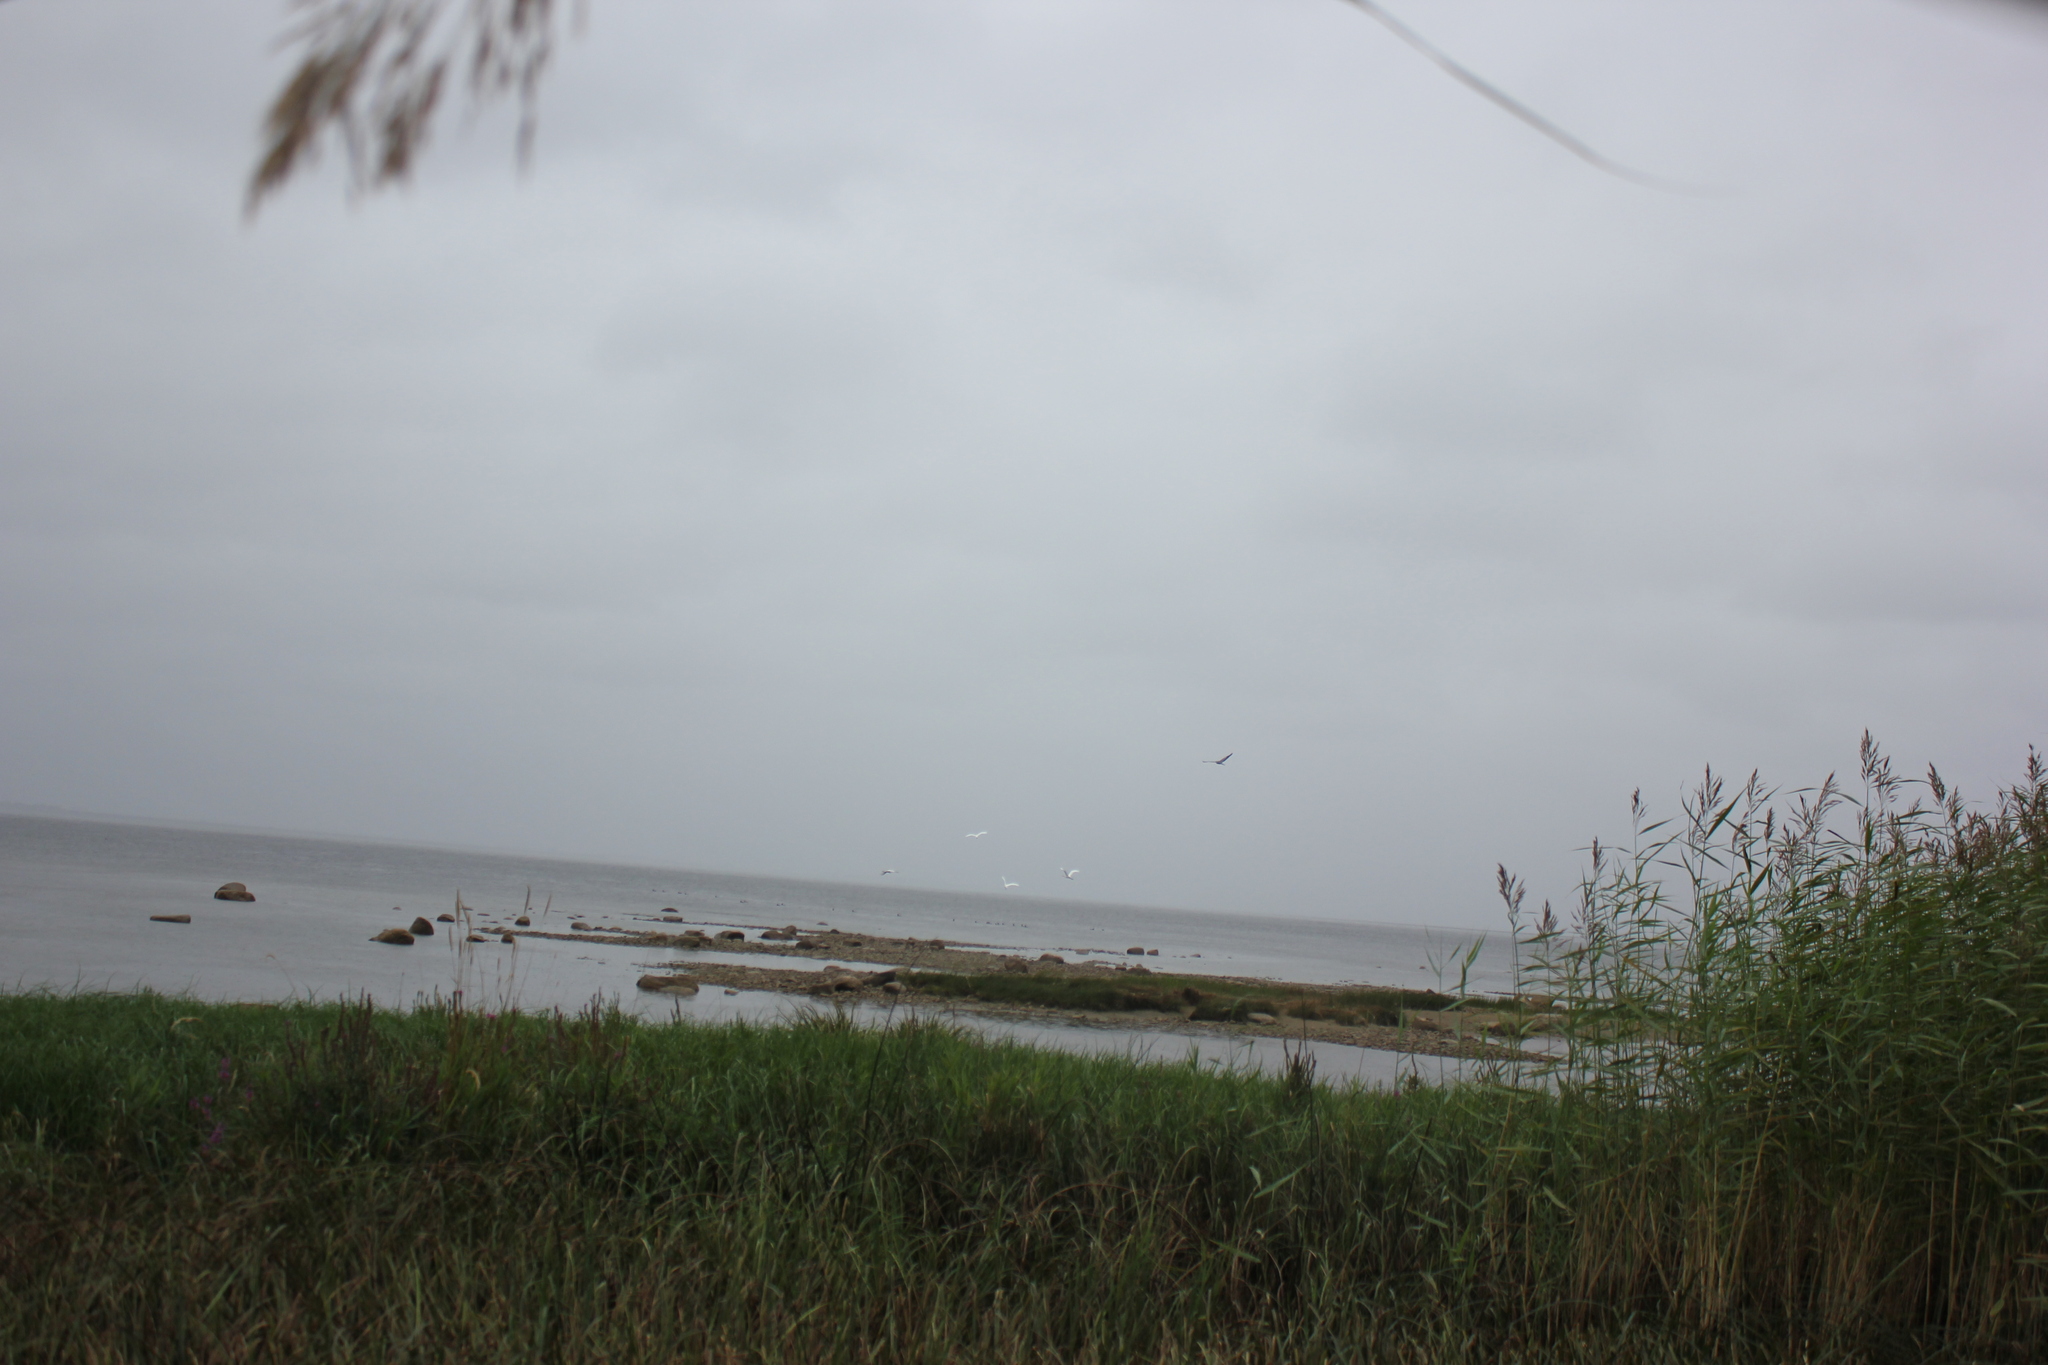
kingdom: Animalia
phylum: Chordata
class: Aves
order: Pelecaniformes
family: Ardeidae
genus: Ardea
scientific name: Ardea alba
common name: Great egret
